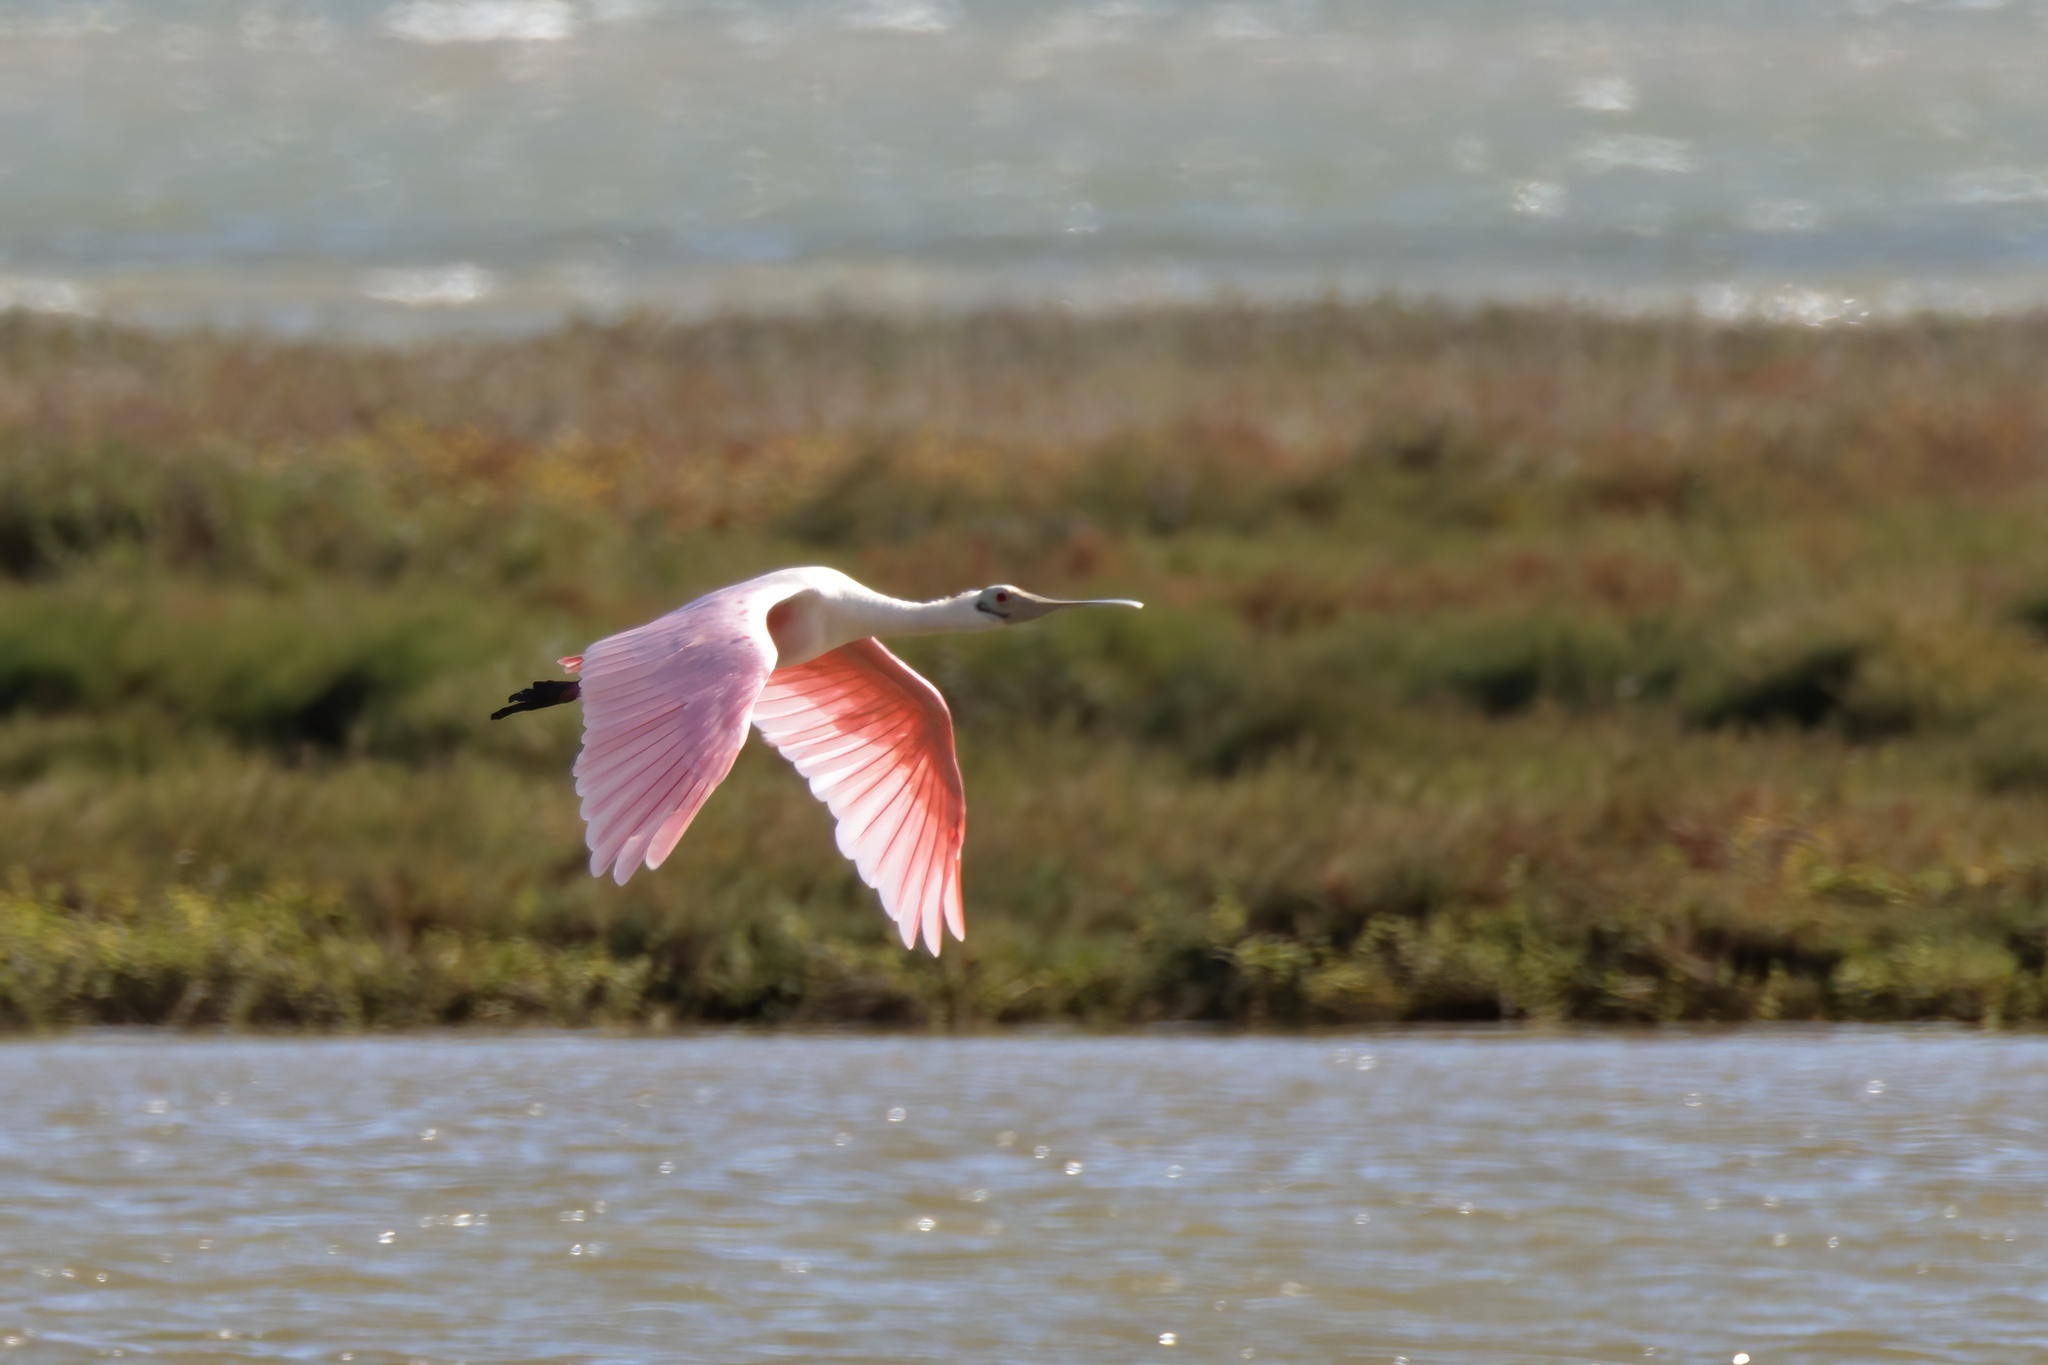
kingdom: Animalia
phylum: Chordata
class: Aves
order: Pelecaniformes
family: Threskiornithidae
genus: Platalea
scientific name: Platalea ajaja
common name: Roseate spoonbill
